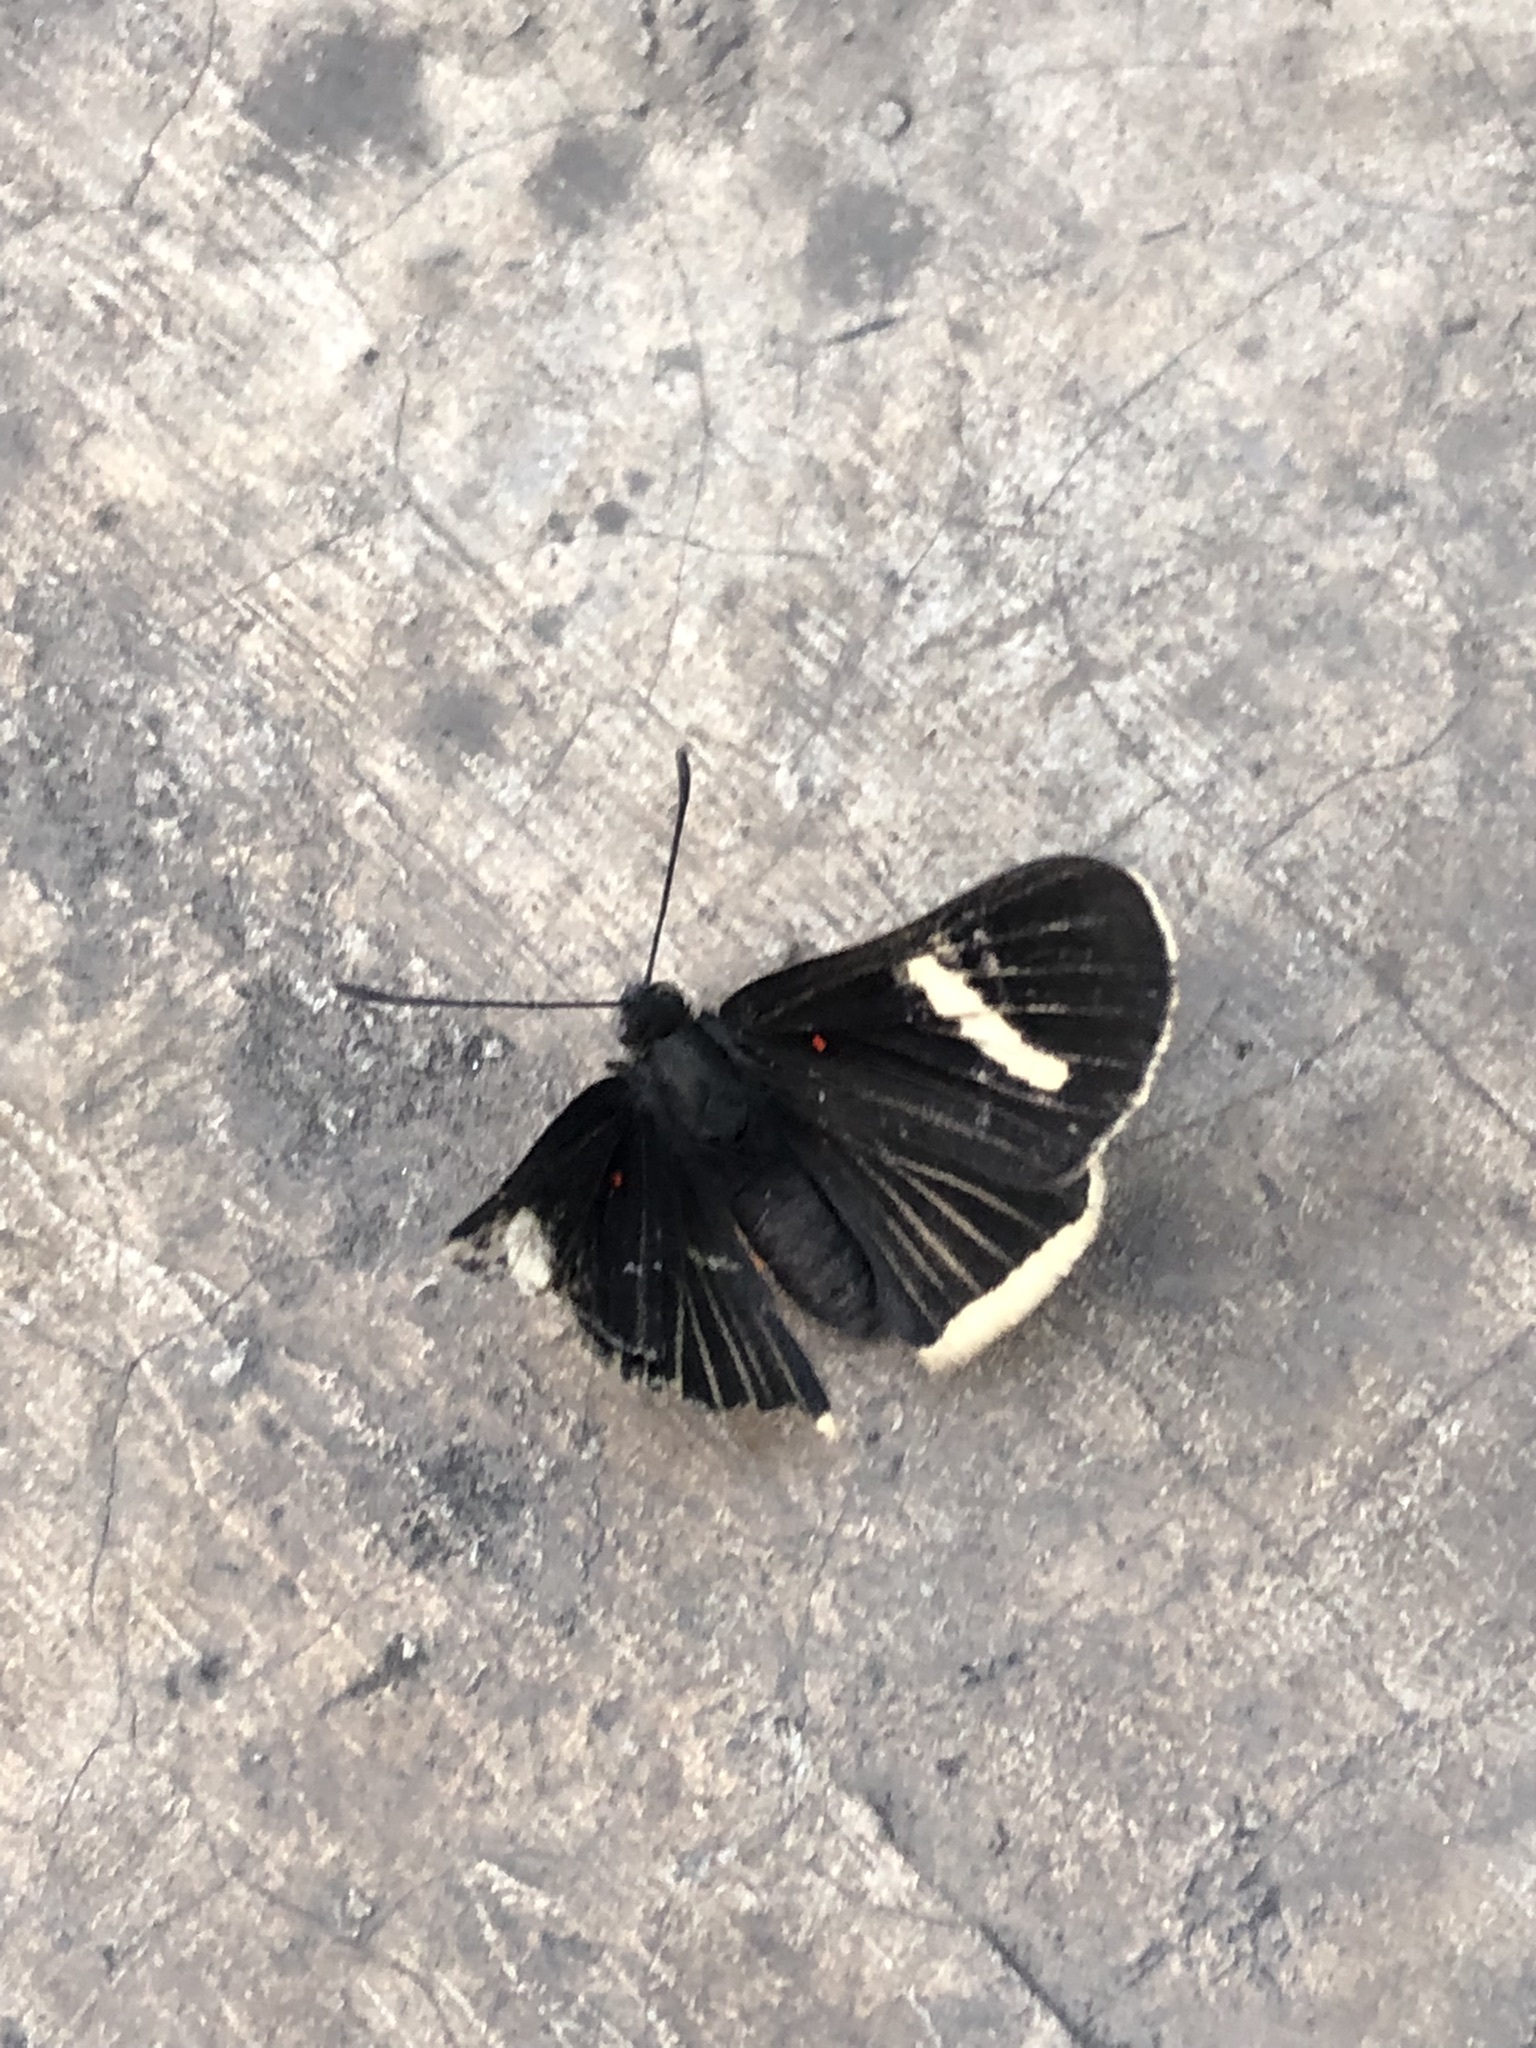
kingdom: Animalia
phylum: Arthropoda
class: Insecta
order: Lepidoptera
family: Lycaenidae
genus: Melanis
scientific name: Melanis
